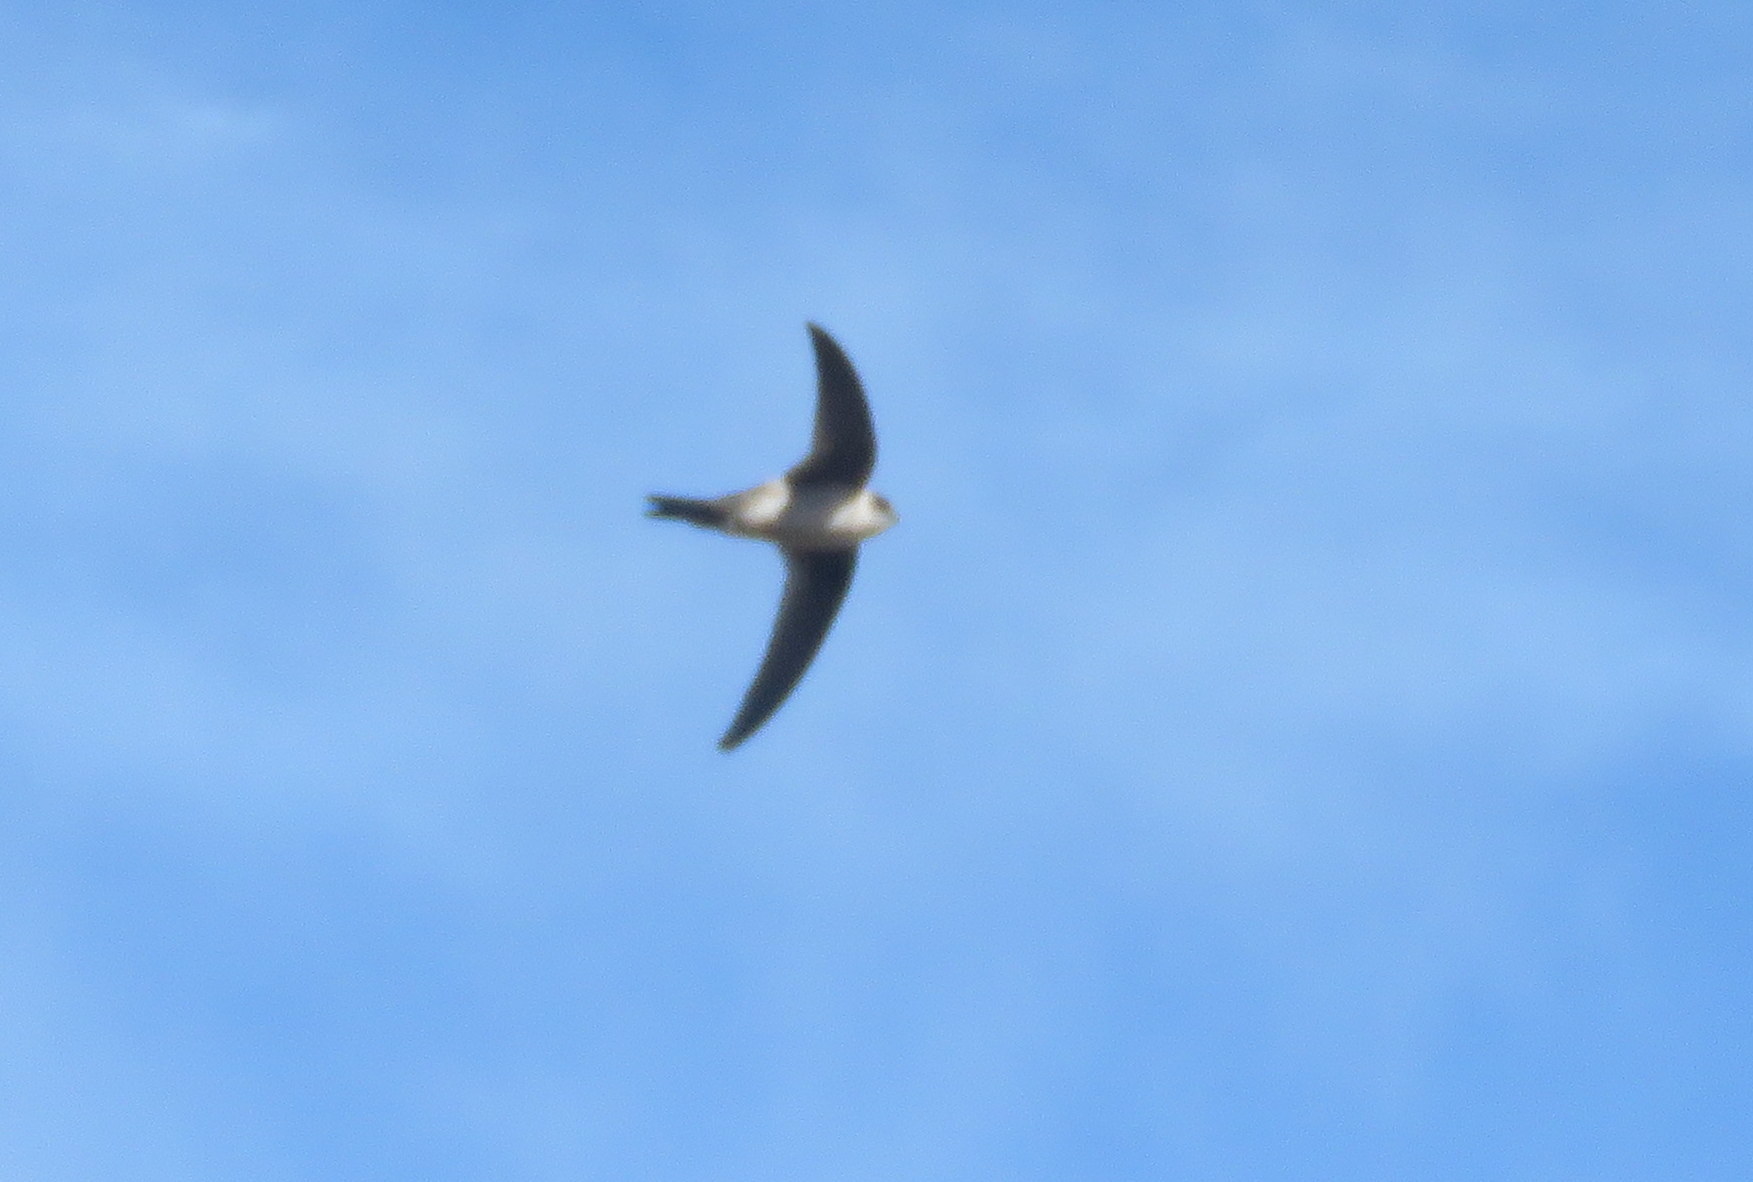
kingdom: Animalia
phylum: Chordata
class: Aves
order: Apodiformes
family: Apodidae
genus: Aeronautes
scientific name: Aeronautes andecolus
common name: Andean swift
